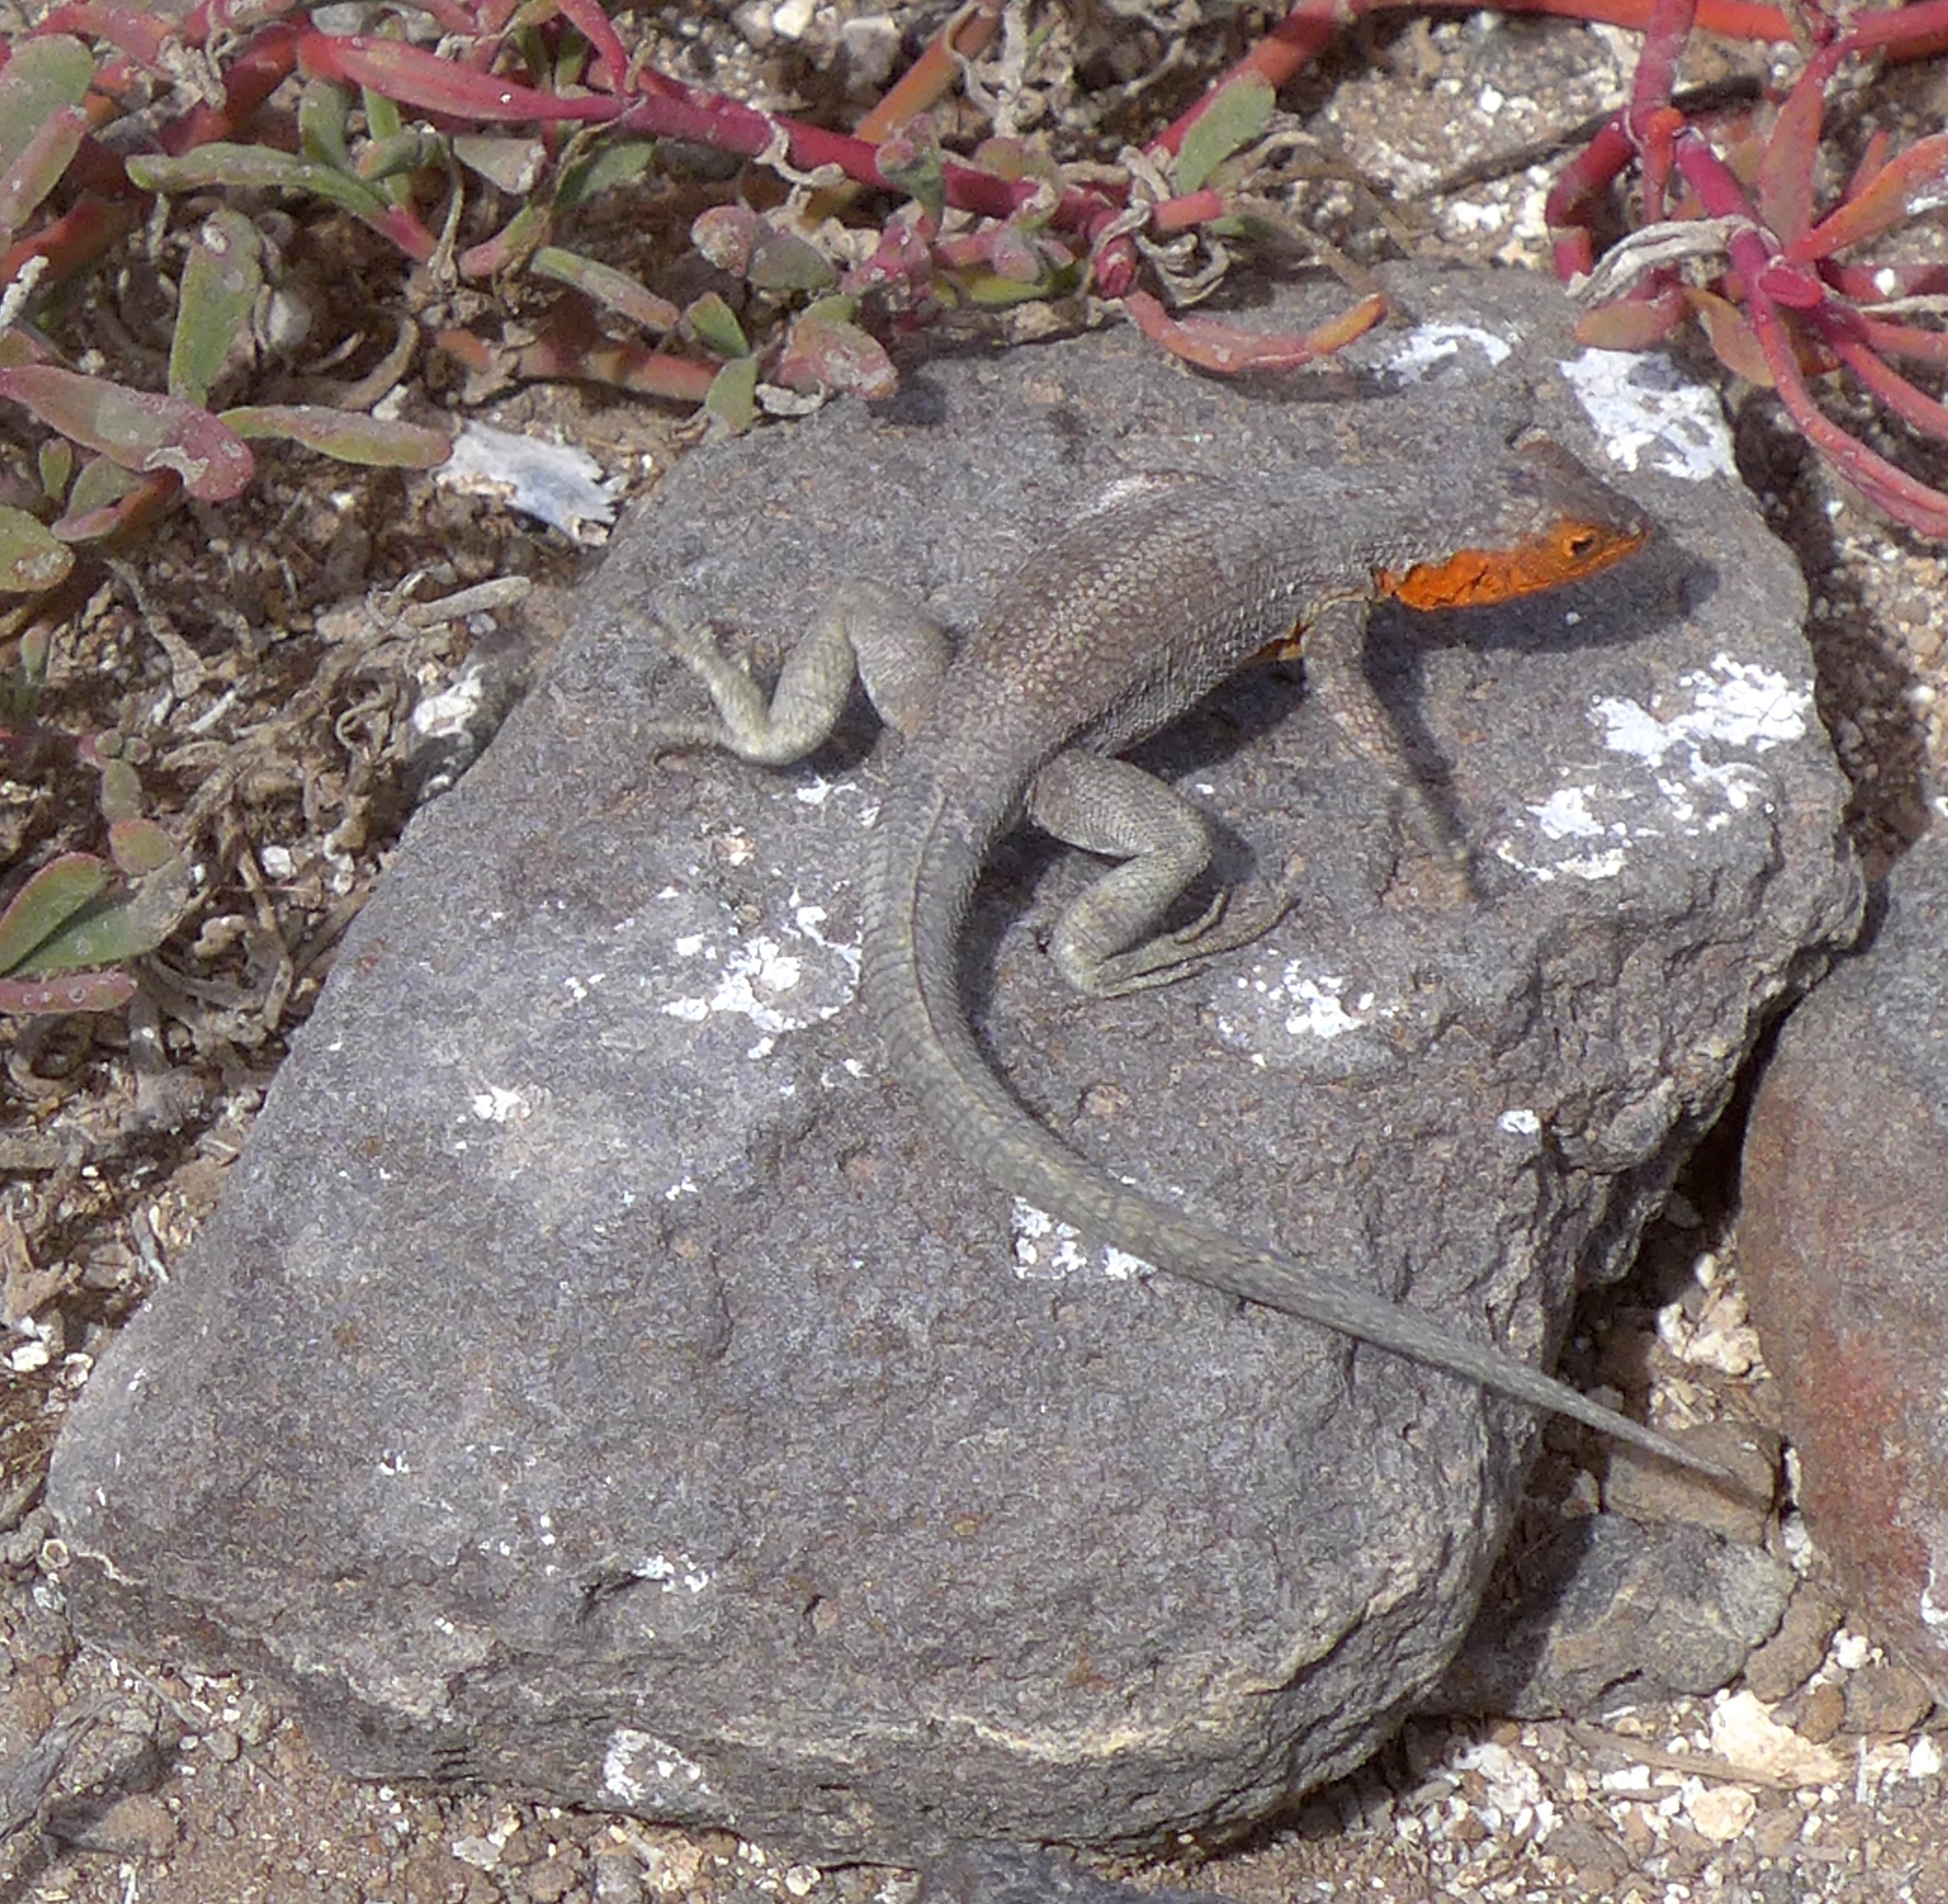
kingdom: Animalia
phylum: Chordata
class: Squamata
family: Tropiduridae
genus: Microlophus
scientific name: Microlophus indefatigabilis
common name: Galapagos lava lizard
